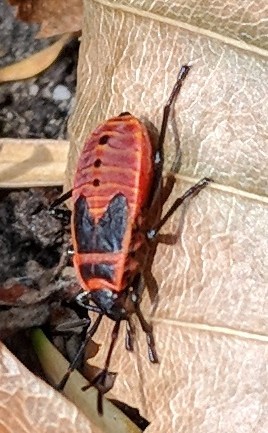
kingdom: Animalia
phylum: Arthropoda
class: Insecta
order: Hemiptera
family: Pyrrhocoridae
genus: Pyrrhocoris
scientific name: Pyrrhocoris apterus
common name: Firebug
